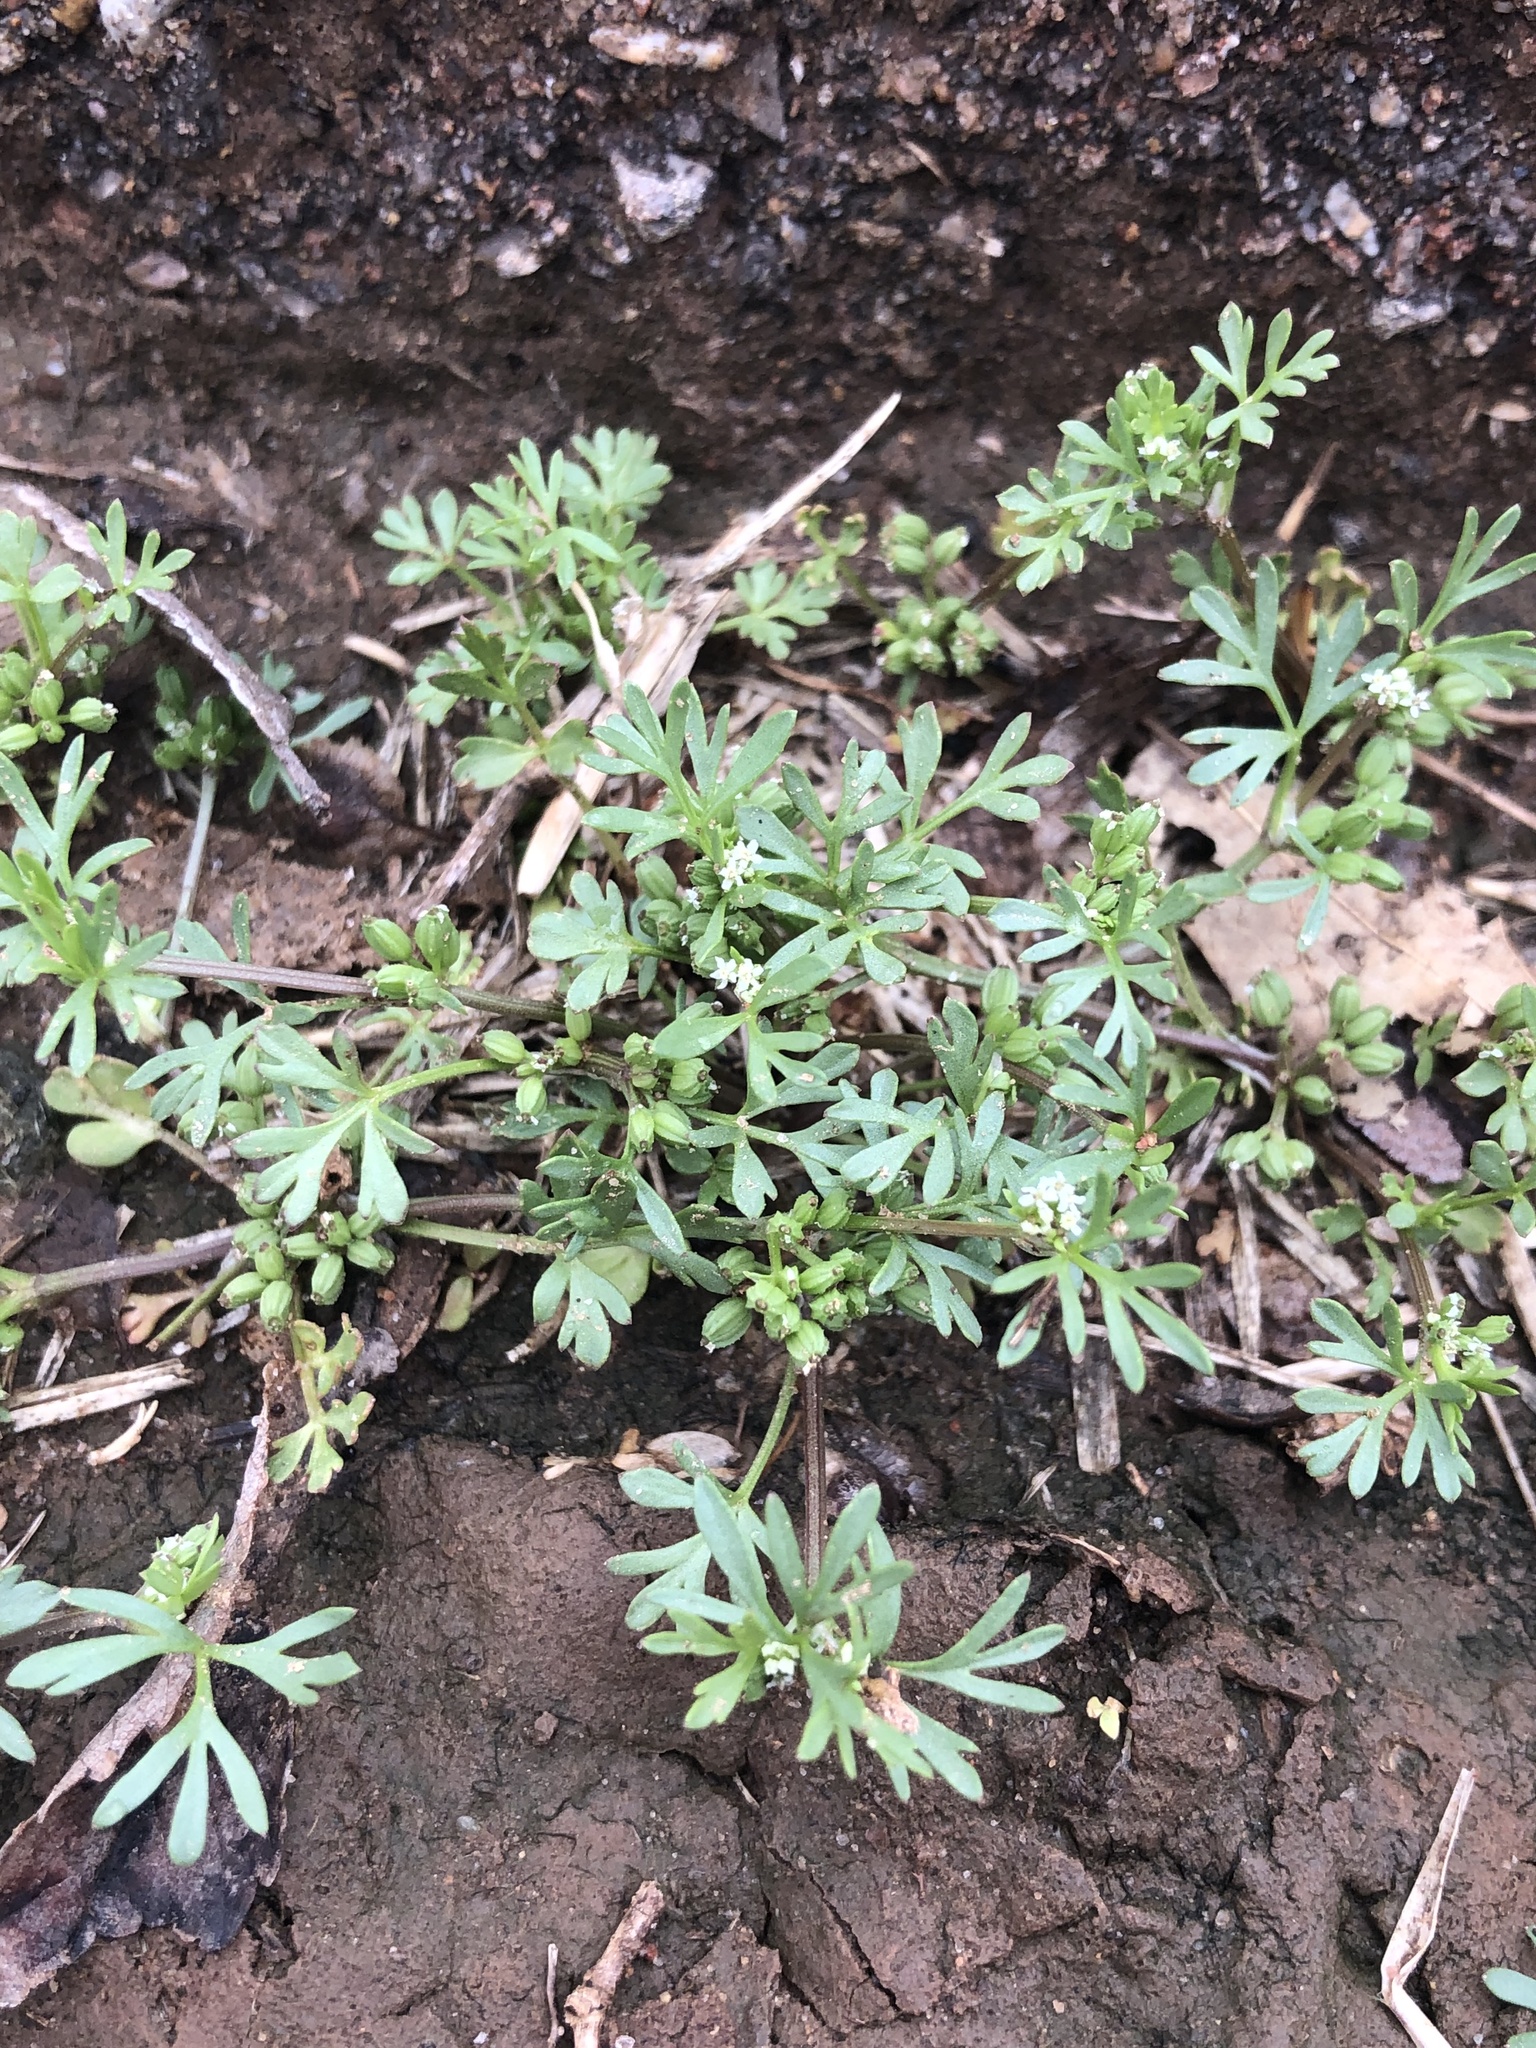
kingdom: Plantae
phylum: Tracheophyta
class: Magnoliopsida
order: Apiales
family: Apiaceae
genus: Ammoselinum
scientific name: Ammoselinum butleri
